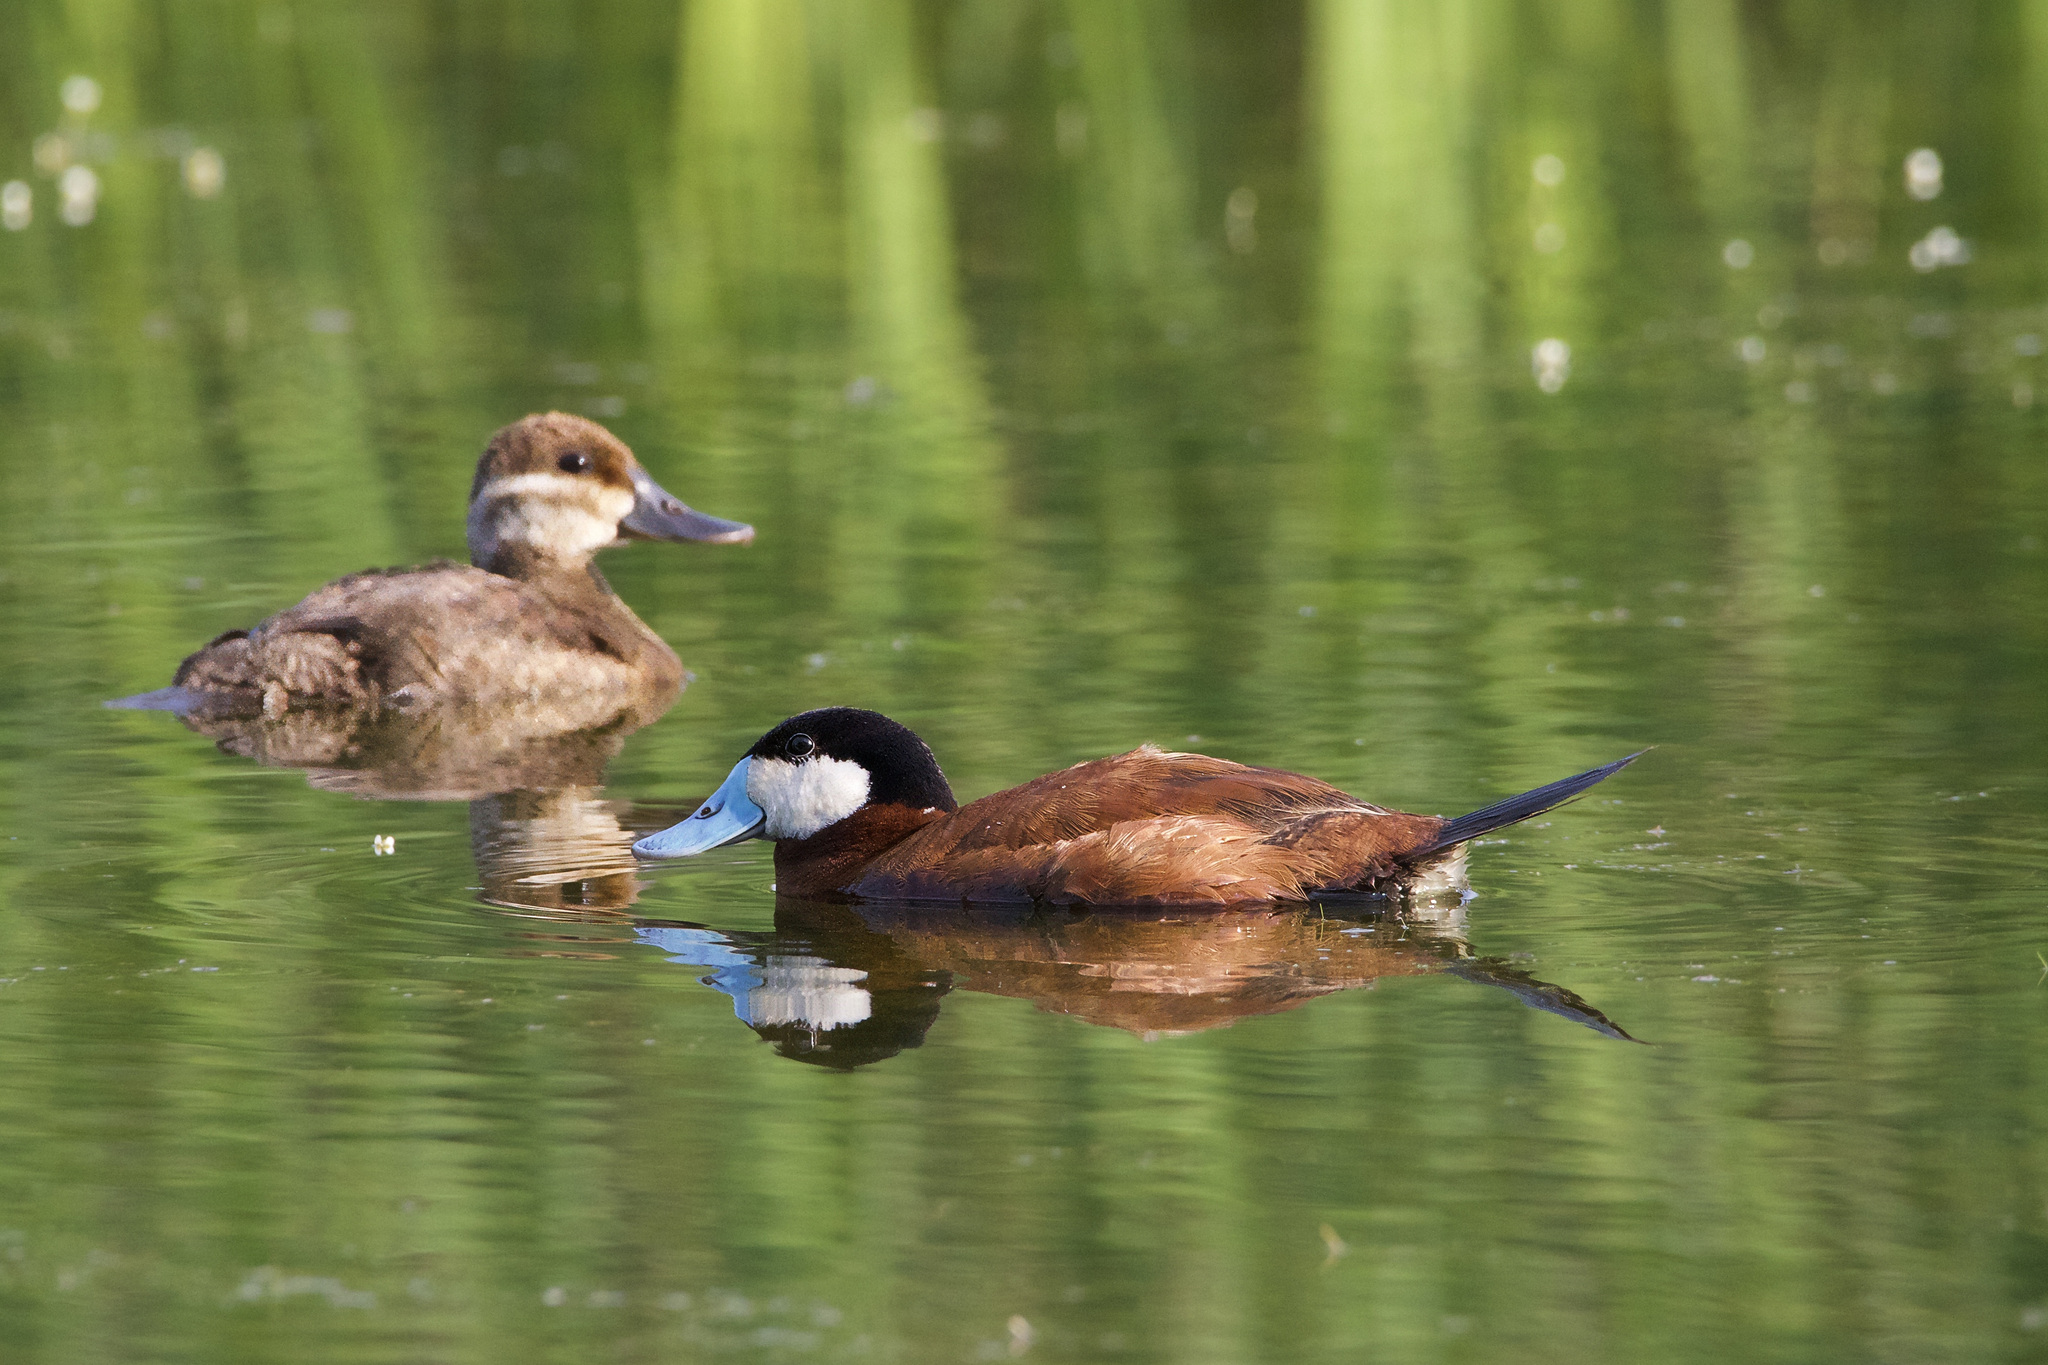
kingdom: Animalia
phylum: Chordata
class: Aves
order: Anseriformes
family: Anatidae
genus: Oxyura
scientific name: Oxyura jamaicensis
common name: Ruddy duck
